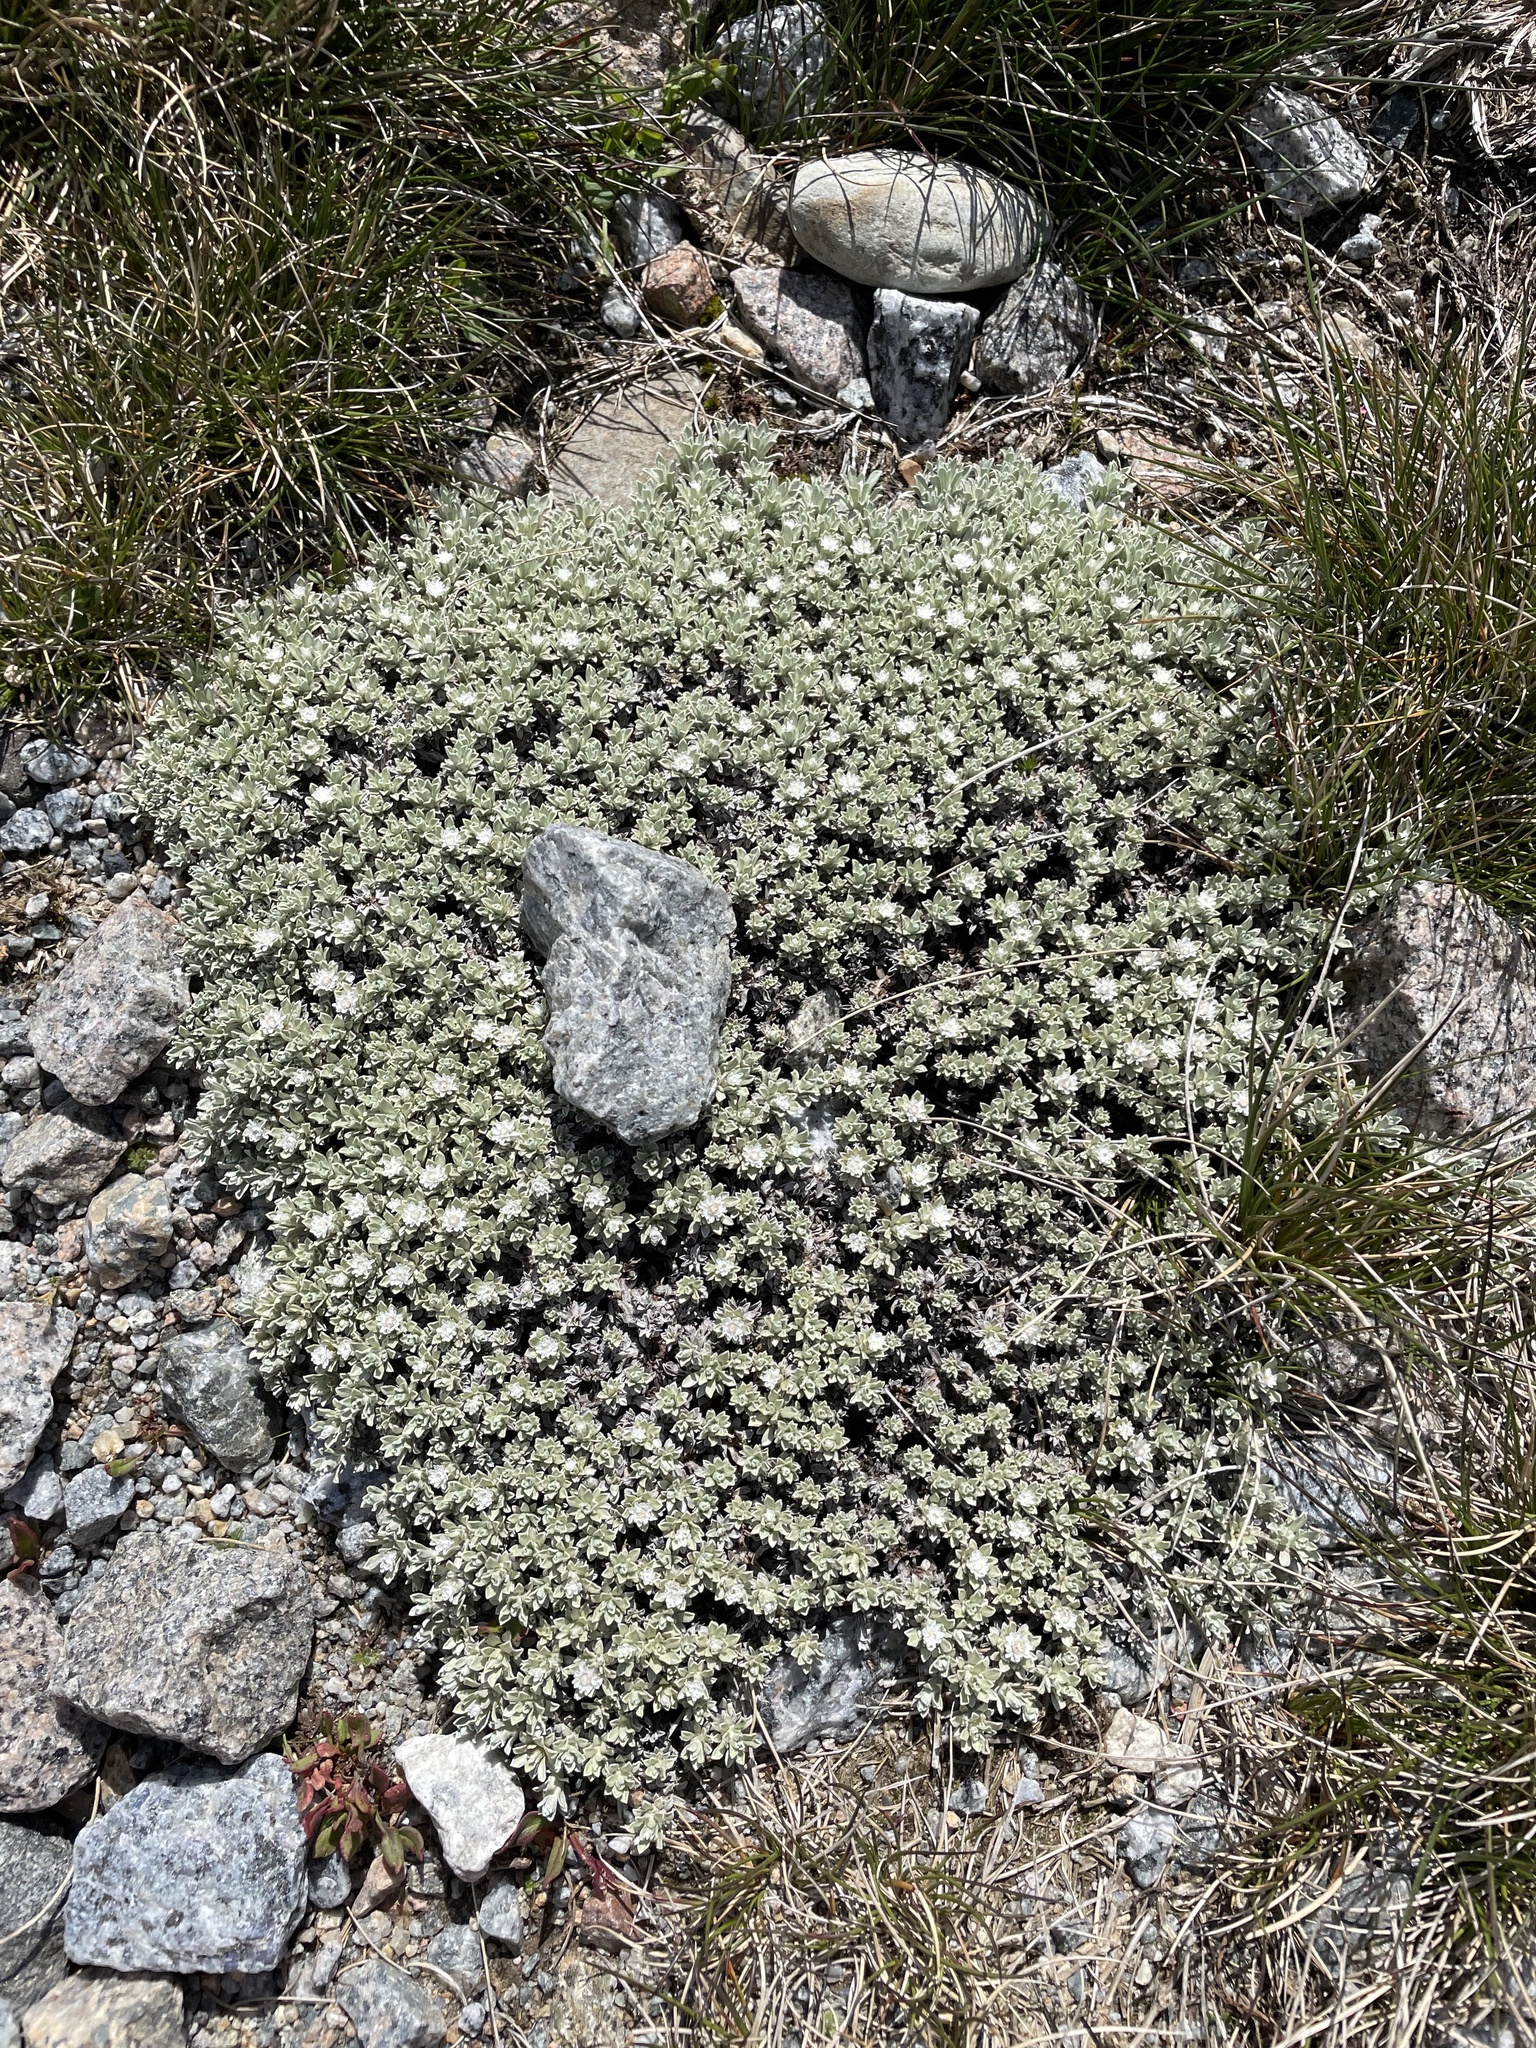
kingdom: Plantae
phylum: Tracheophyta
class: Magnoliopsida
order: Asterales
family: Asteraceae
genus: Ewartia
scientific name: Ewartia nubigena
